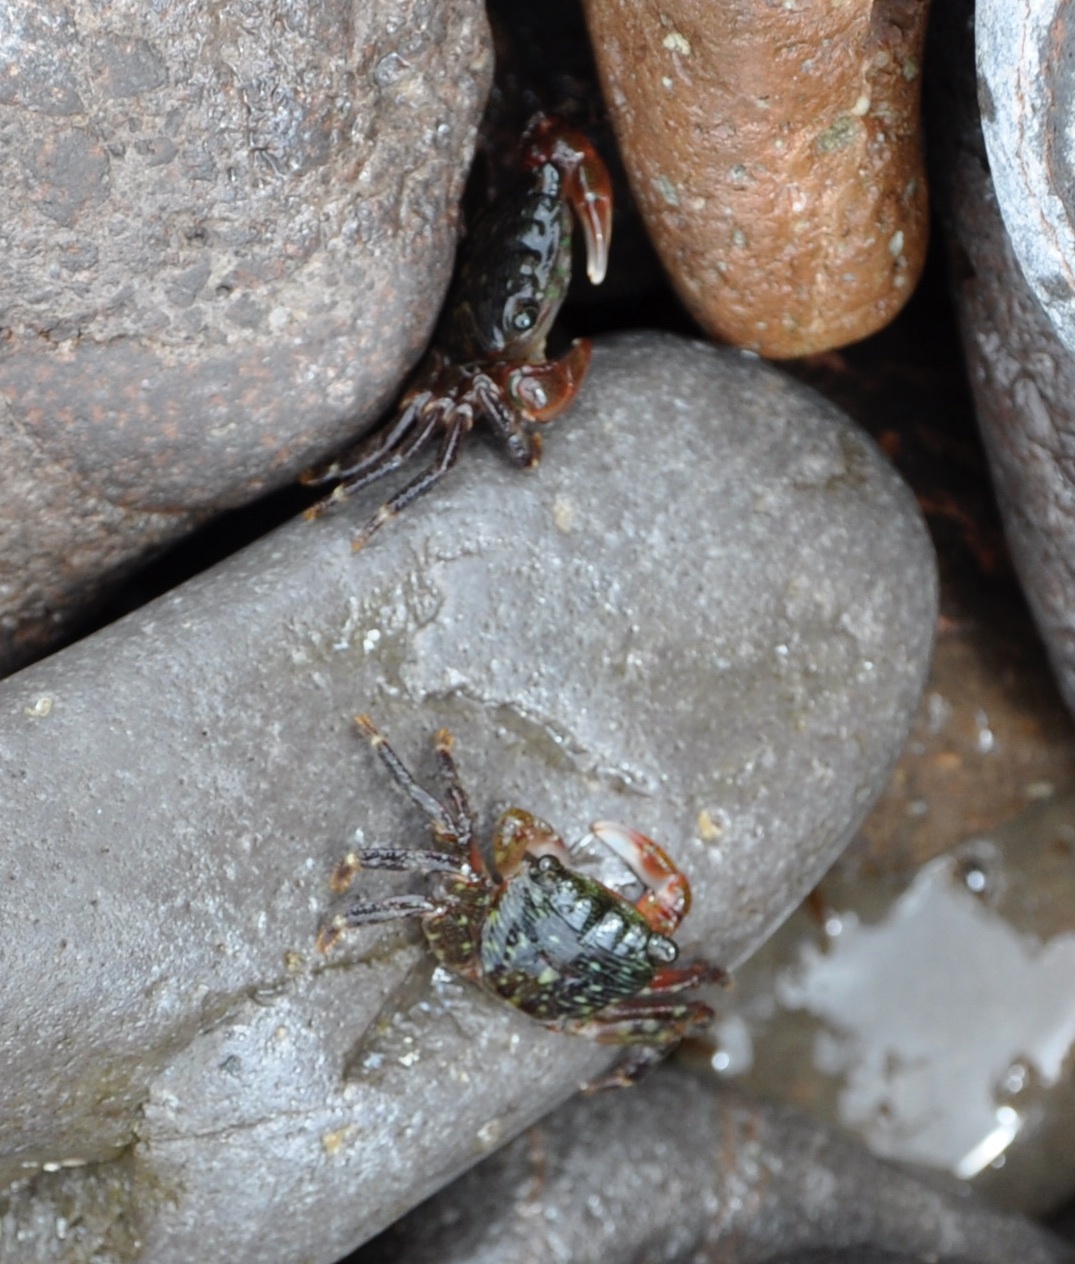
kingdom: Animalia
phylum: Arthropoda
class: Malacostraca
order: Decapoda
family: Grapsidae
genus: Pachygrapsus
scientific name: Pachygrapsus crassipes
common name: Striped shore crab
